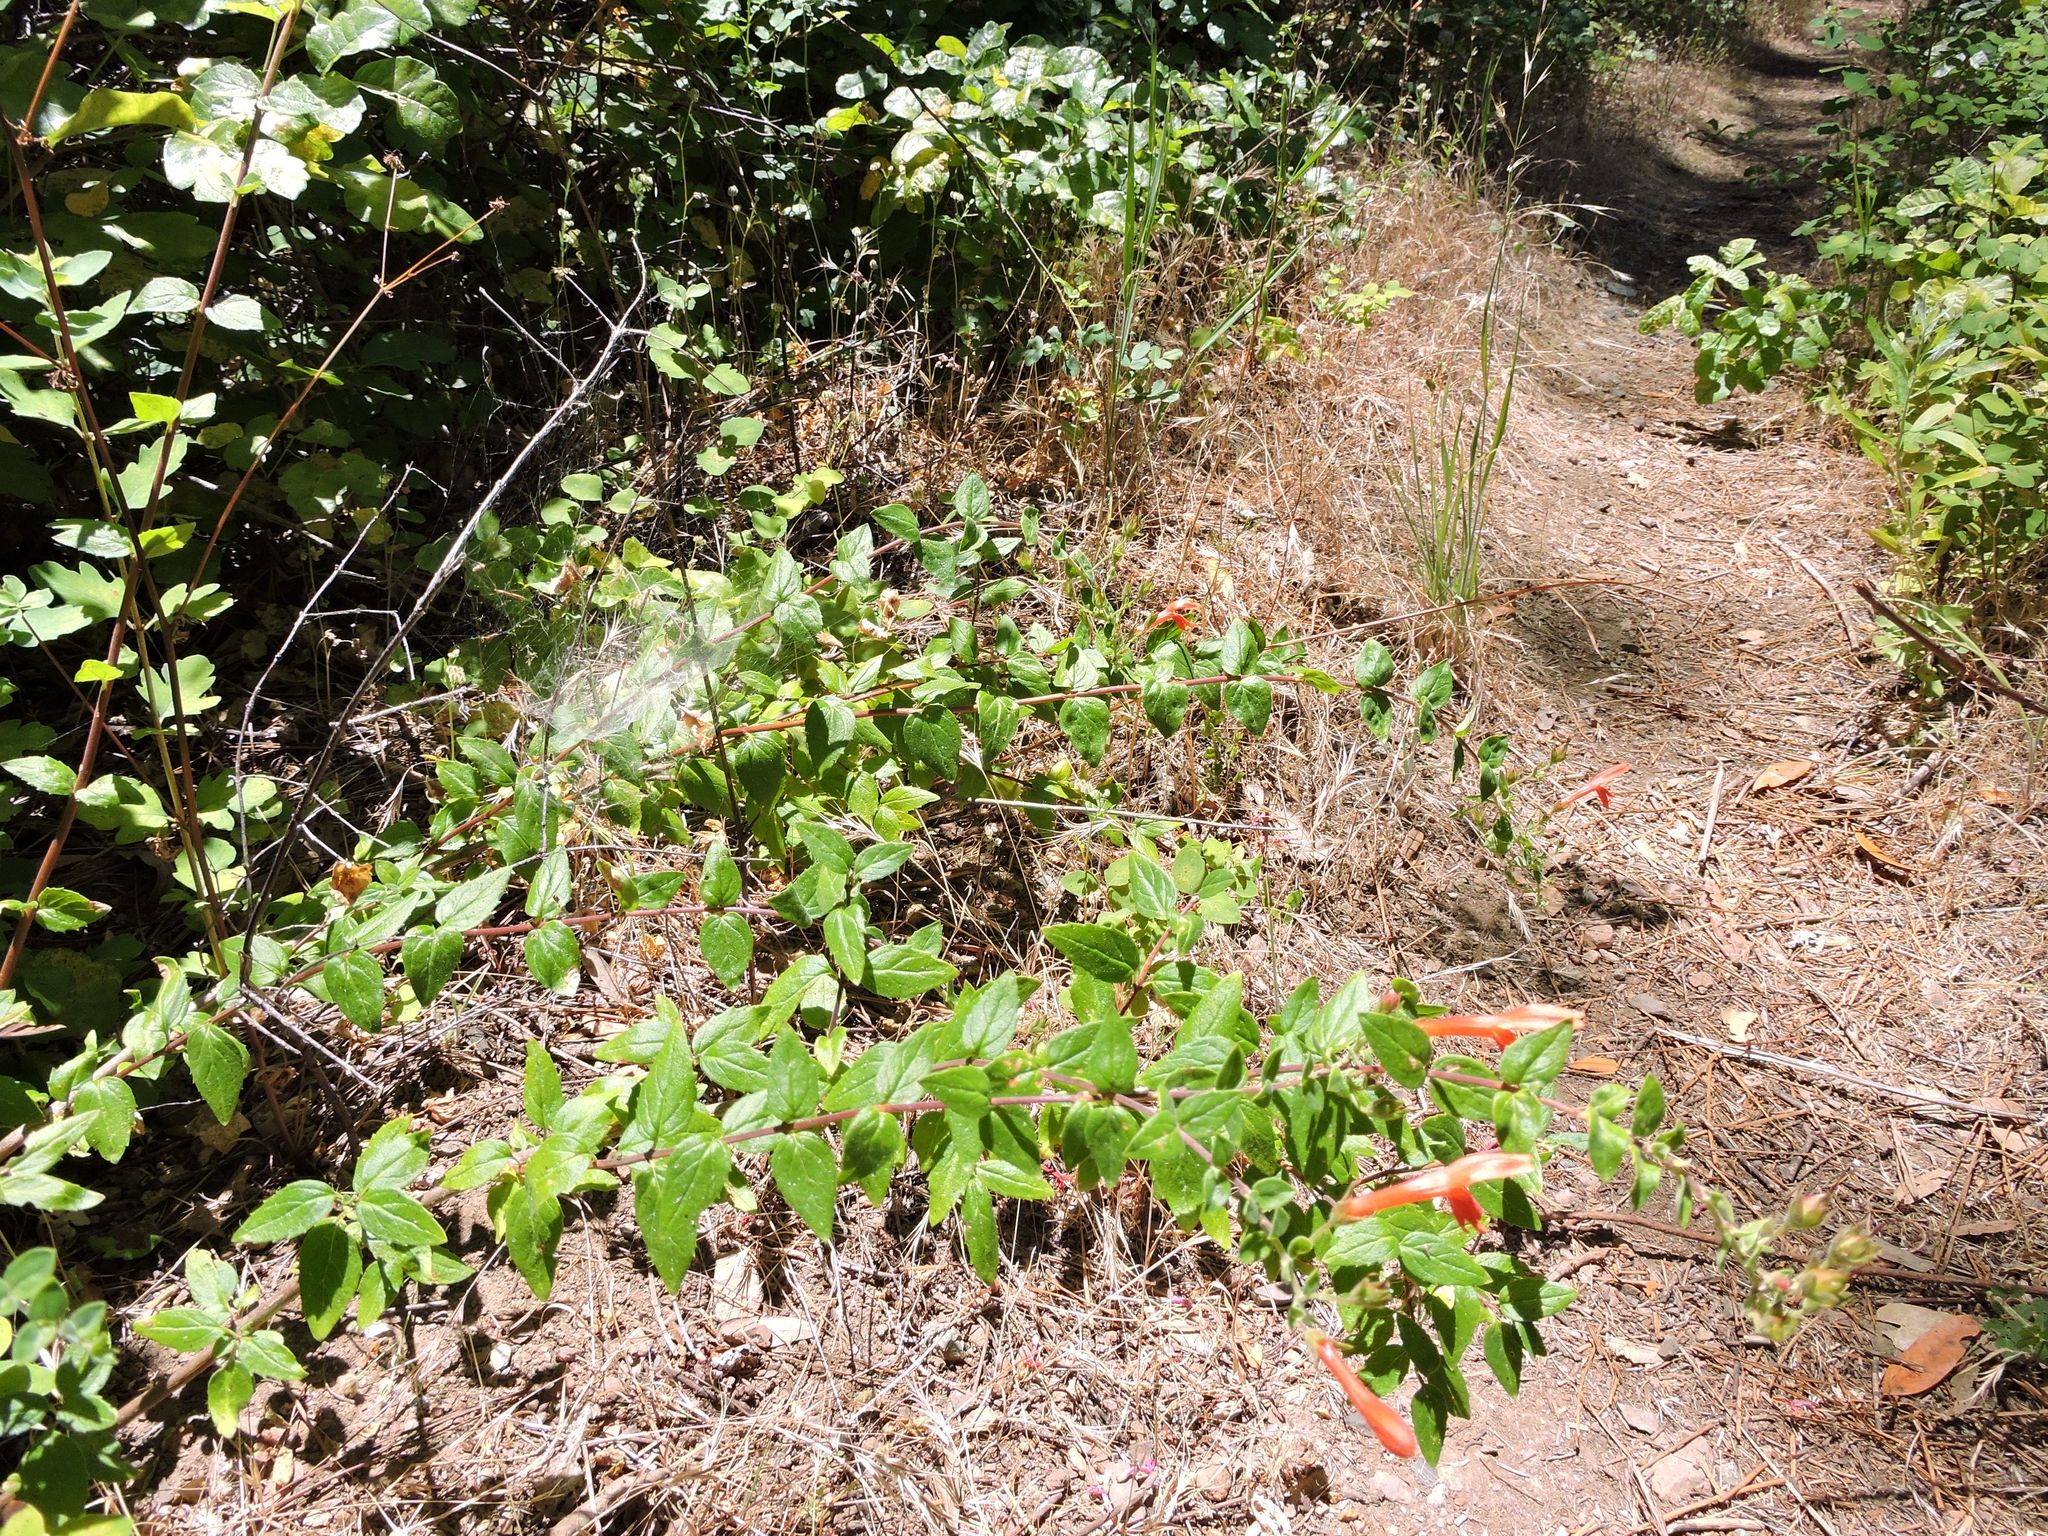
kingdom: Plantae
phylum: Tracheophyta
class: Magnoliopsida
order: Lamiales
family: Plantaginaceae
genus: Keckiella
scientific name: Keckiella cordifolia
